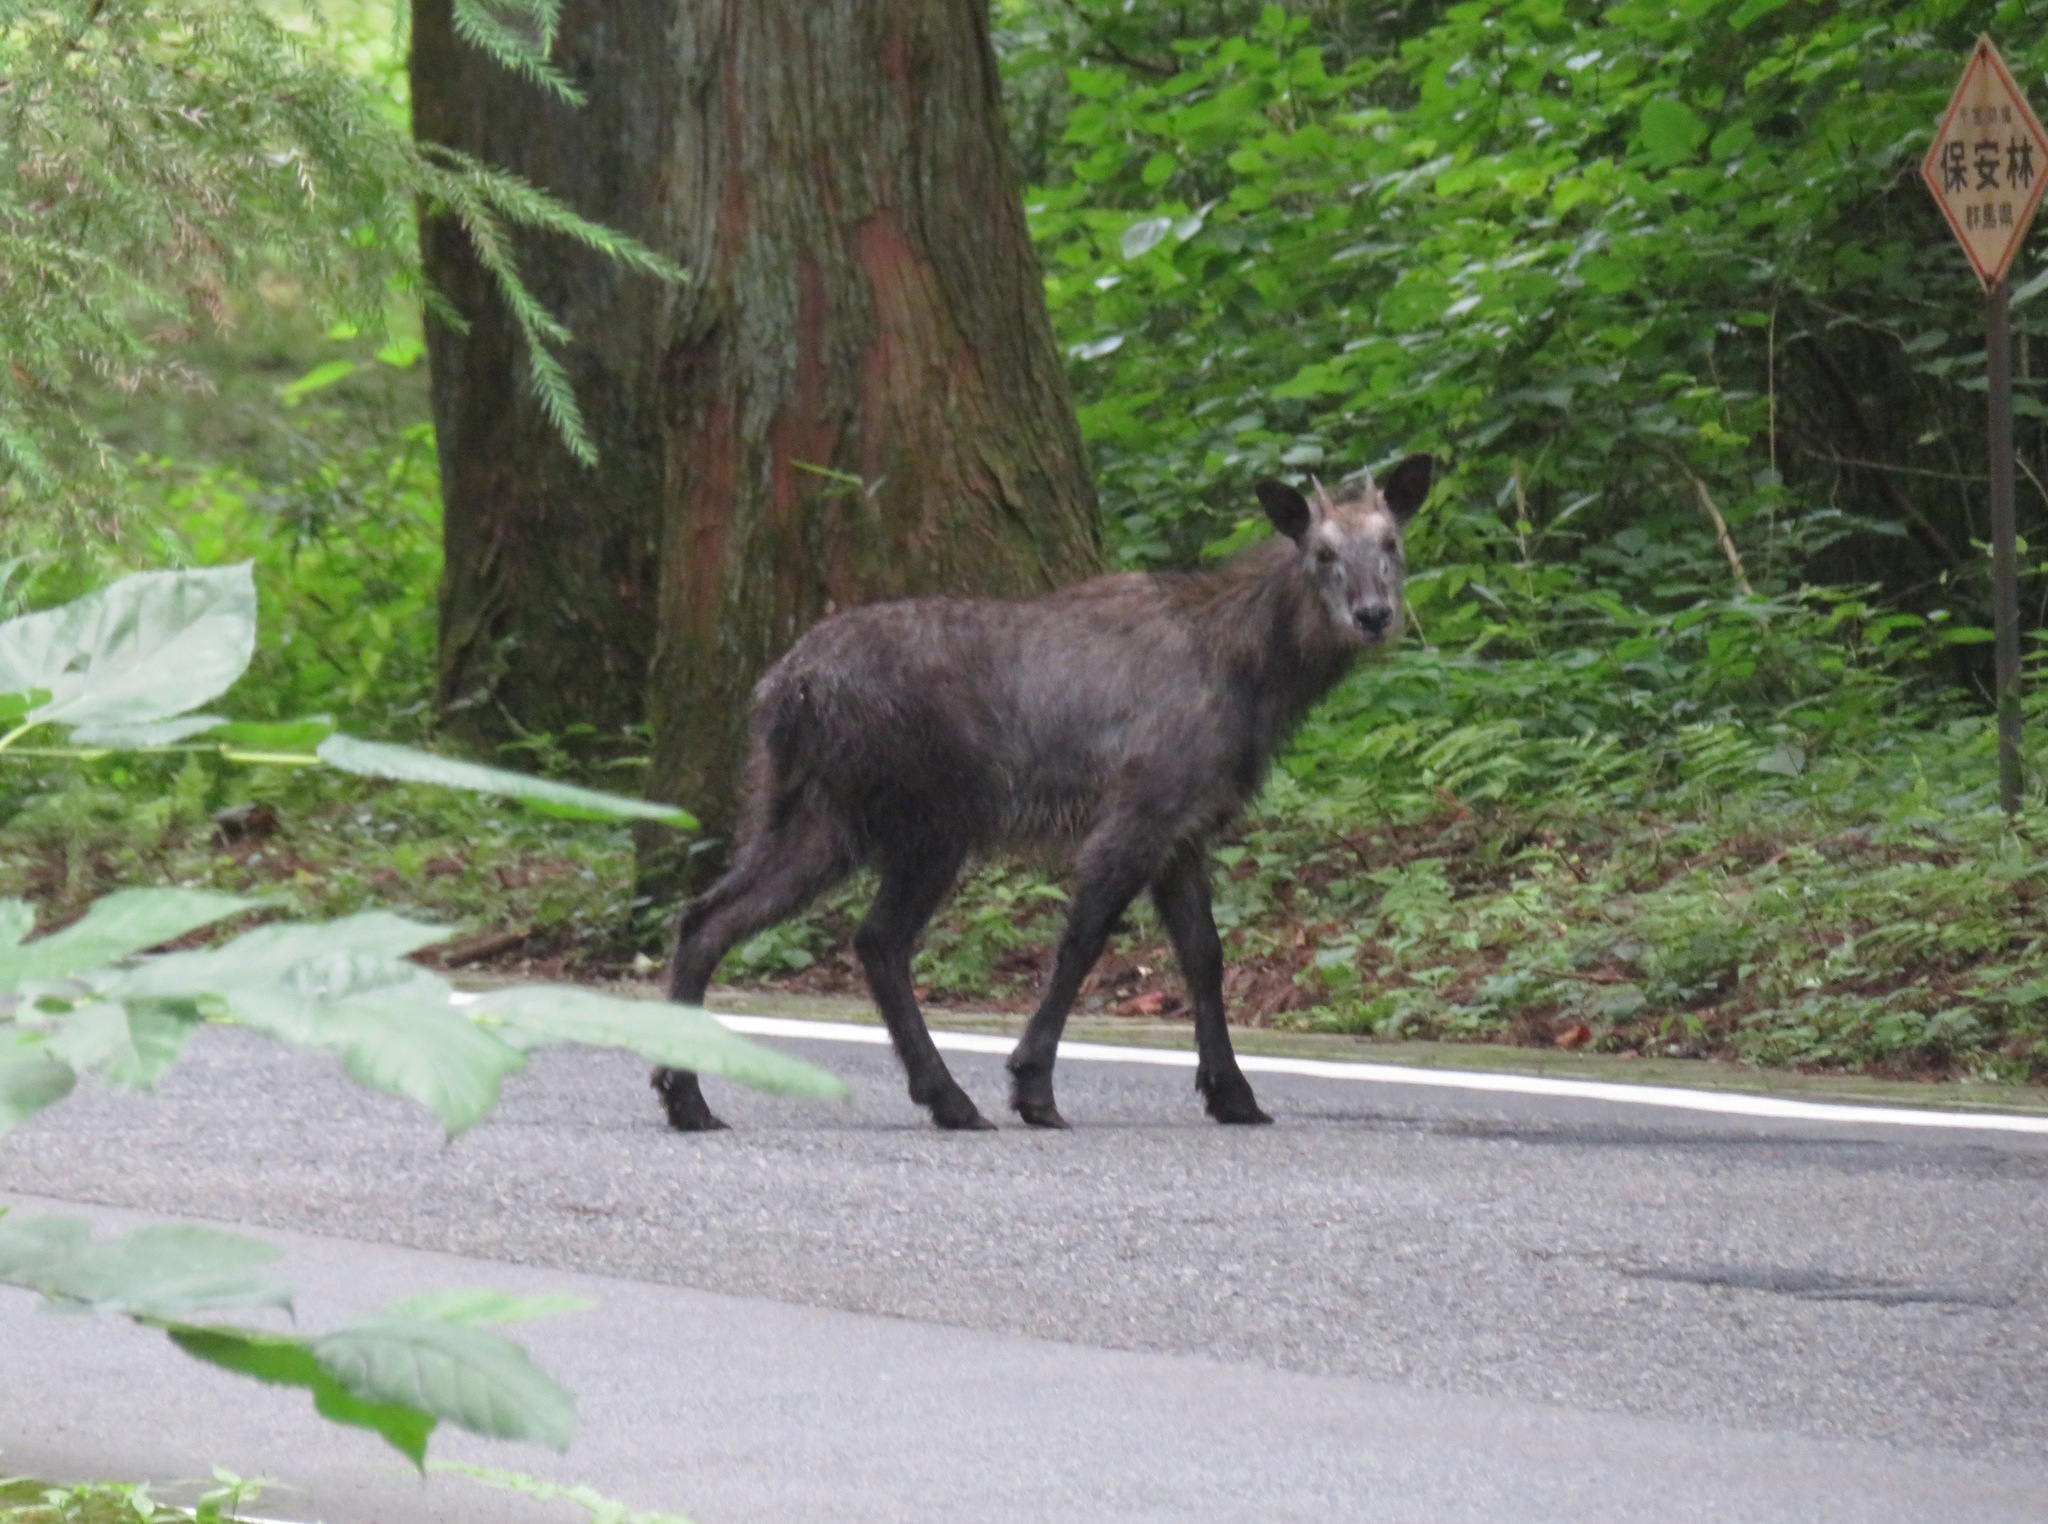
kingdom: Animalia
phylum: Chordata
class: Mammalia
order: Artiodactyla
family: Bovidae
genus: Capricornis
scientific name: Capricornis crispus
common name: Japanese serow
